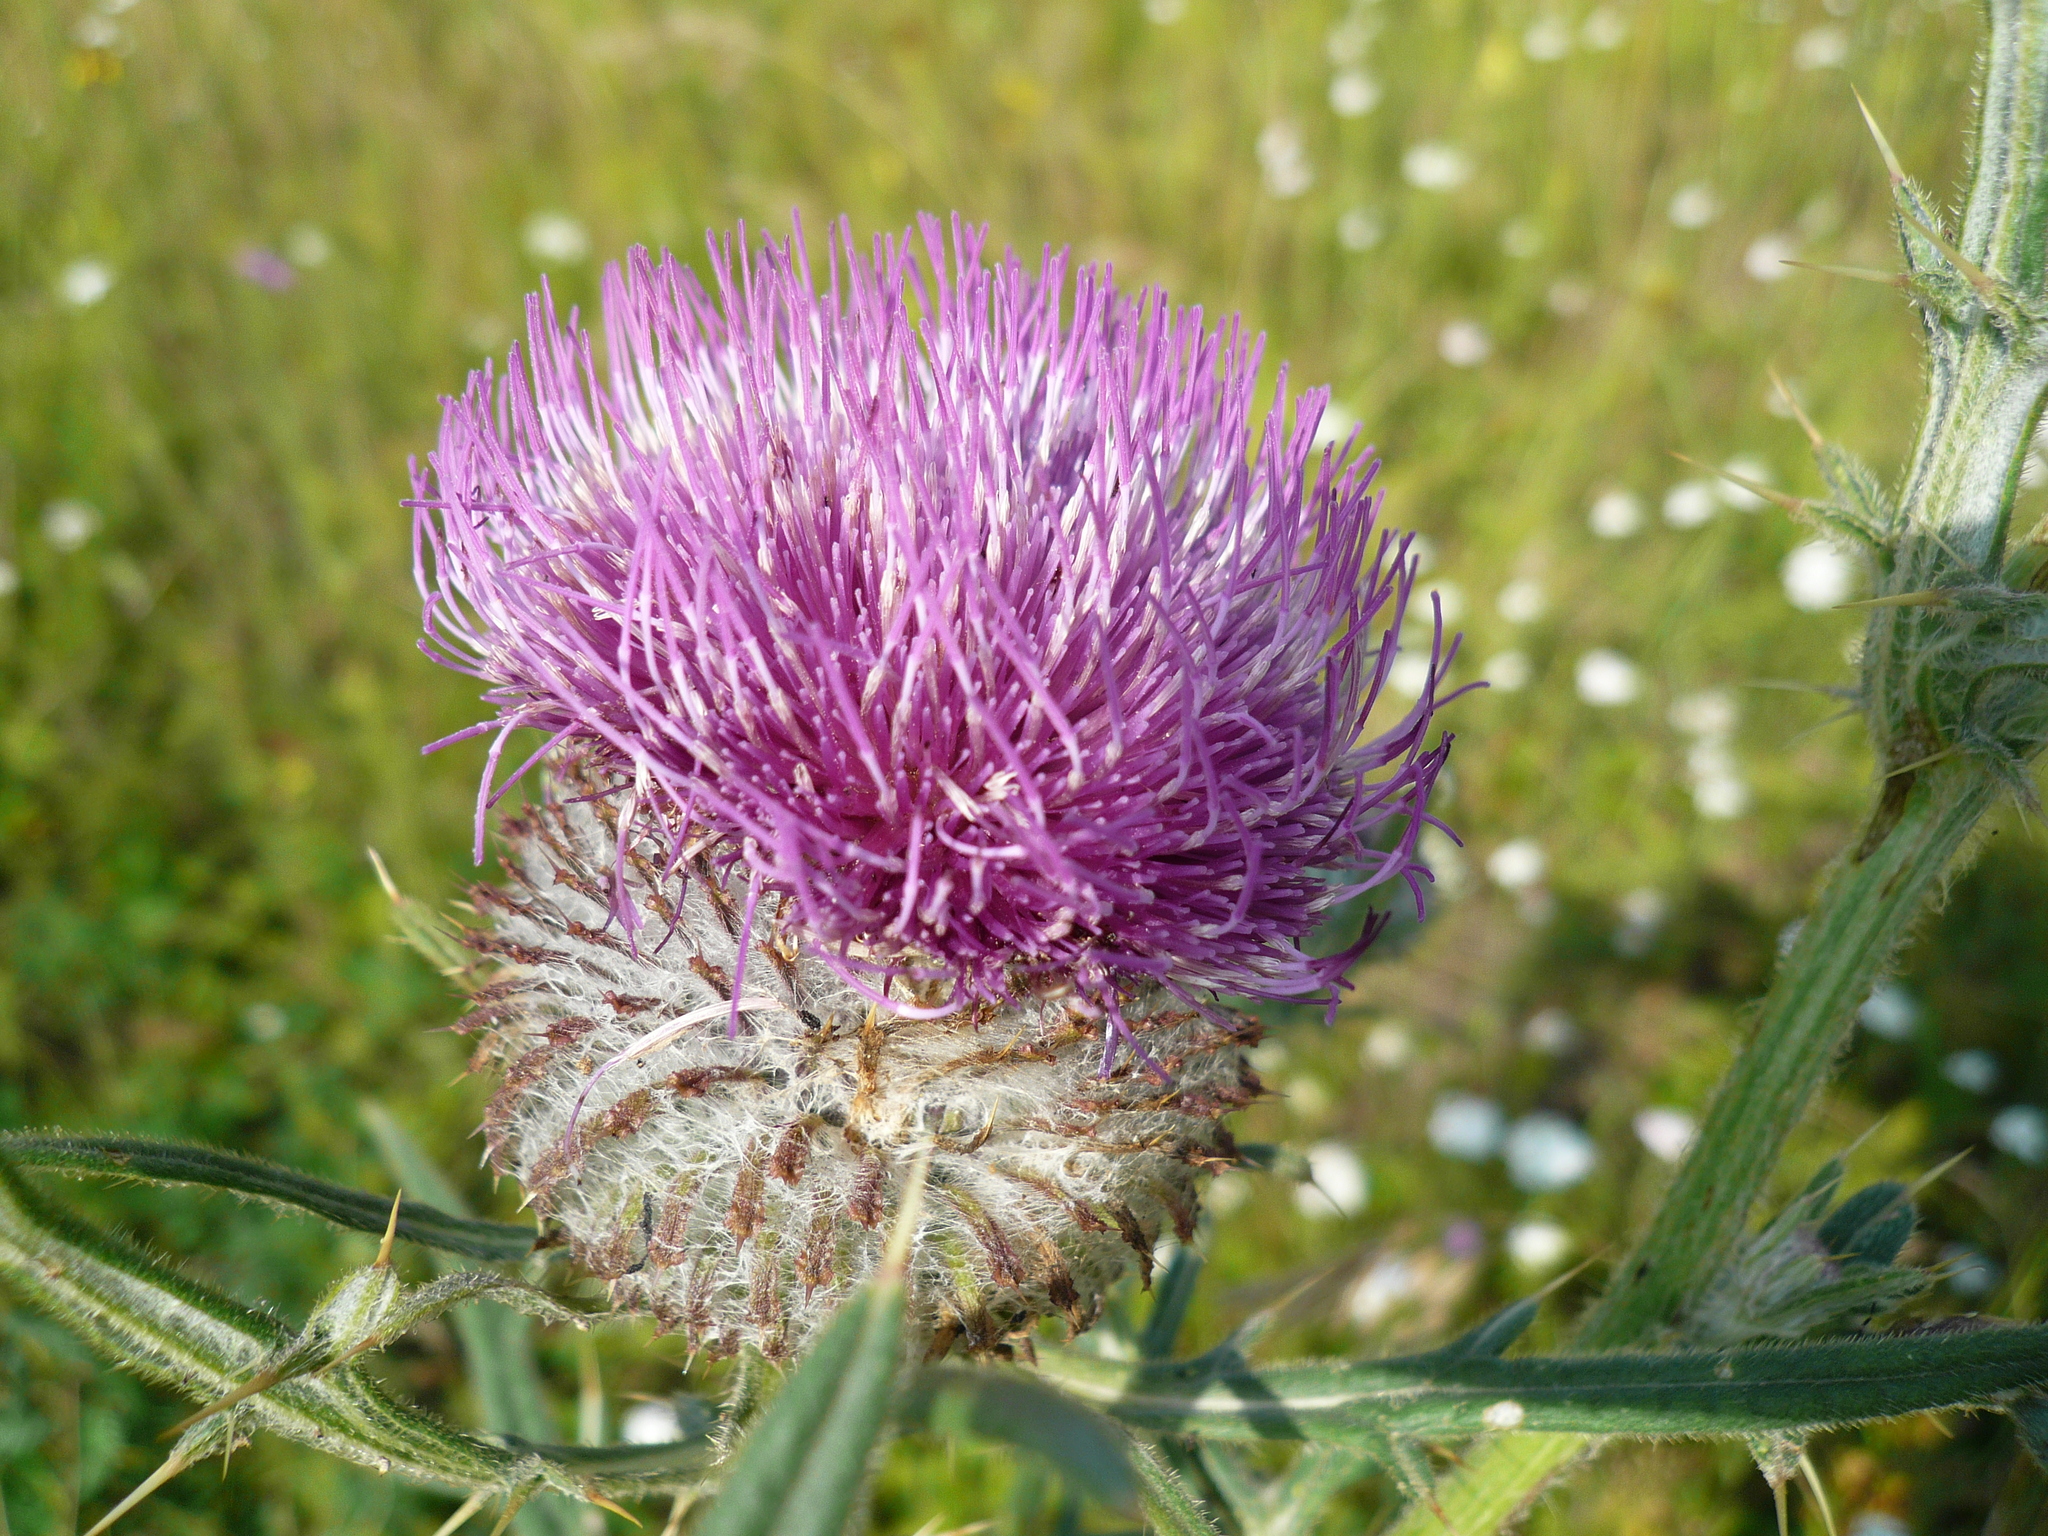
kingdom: Plantae
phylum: Tracheophyta
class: Magnoliopsida
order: Asterales
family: Asteraceae
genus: Lophiolepis
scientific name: Lophiolepis decussata
